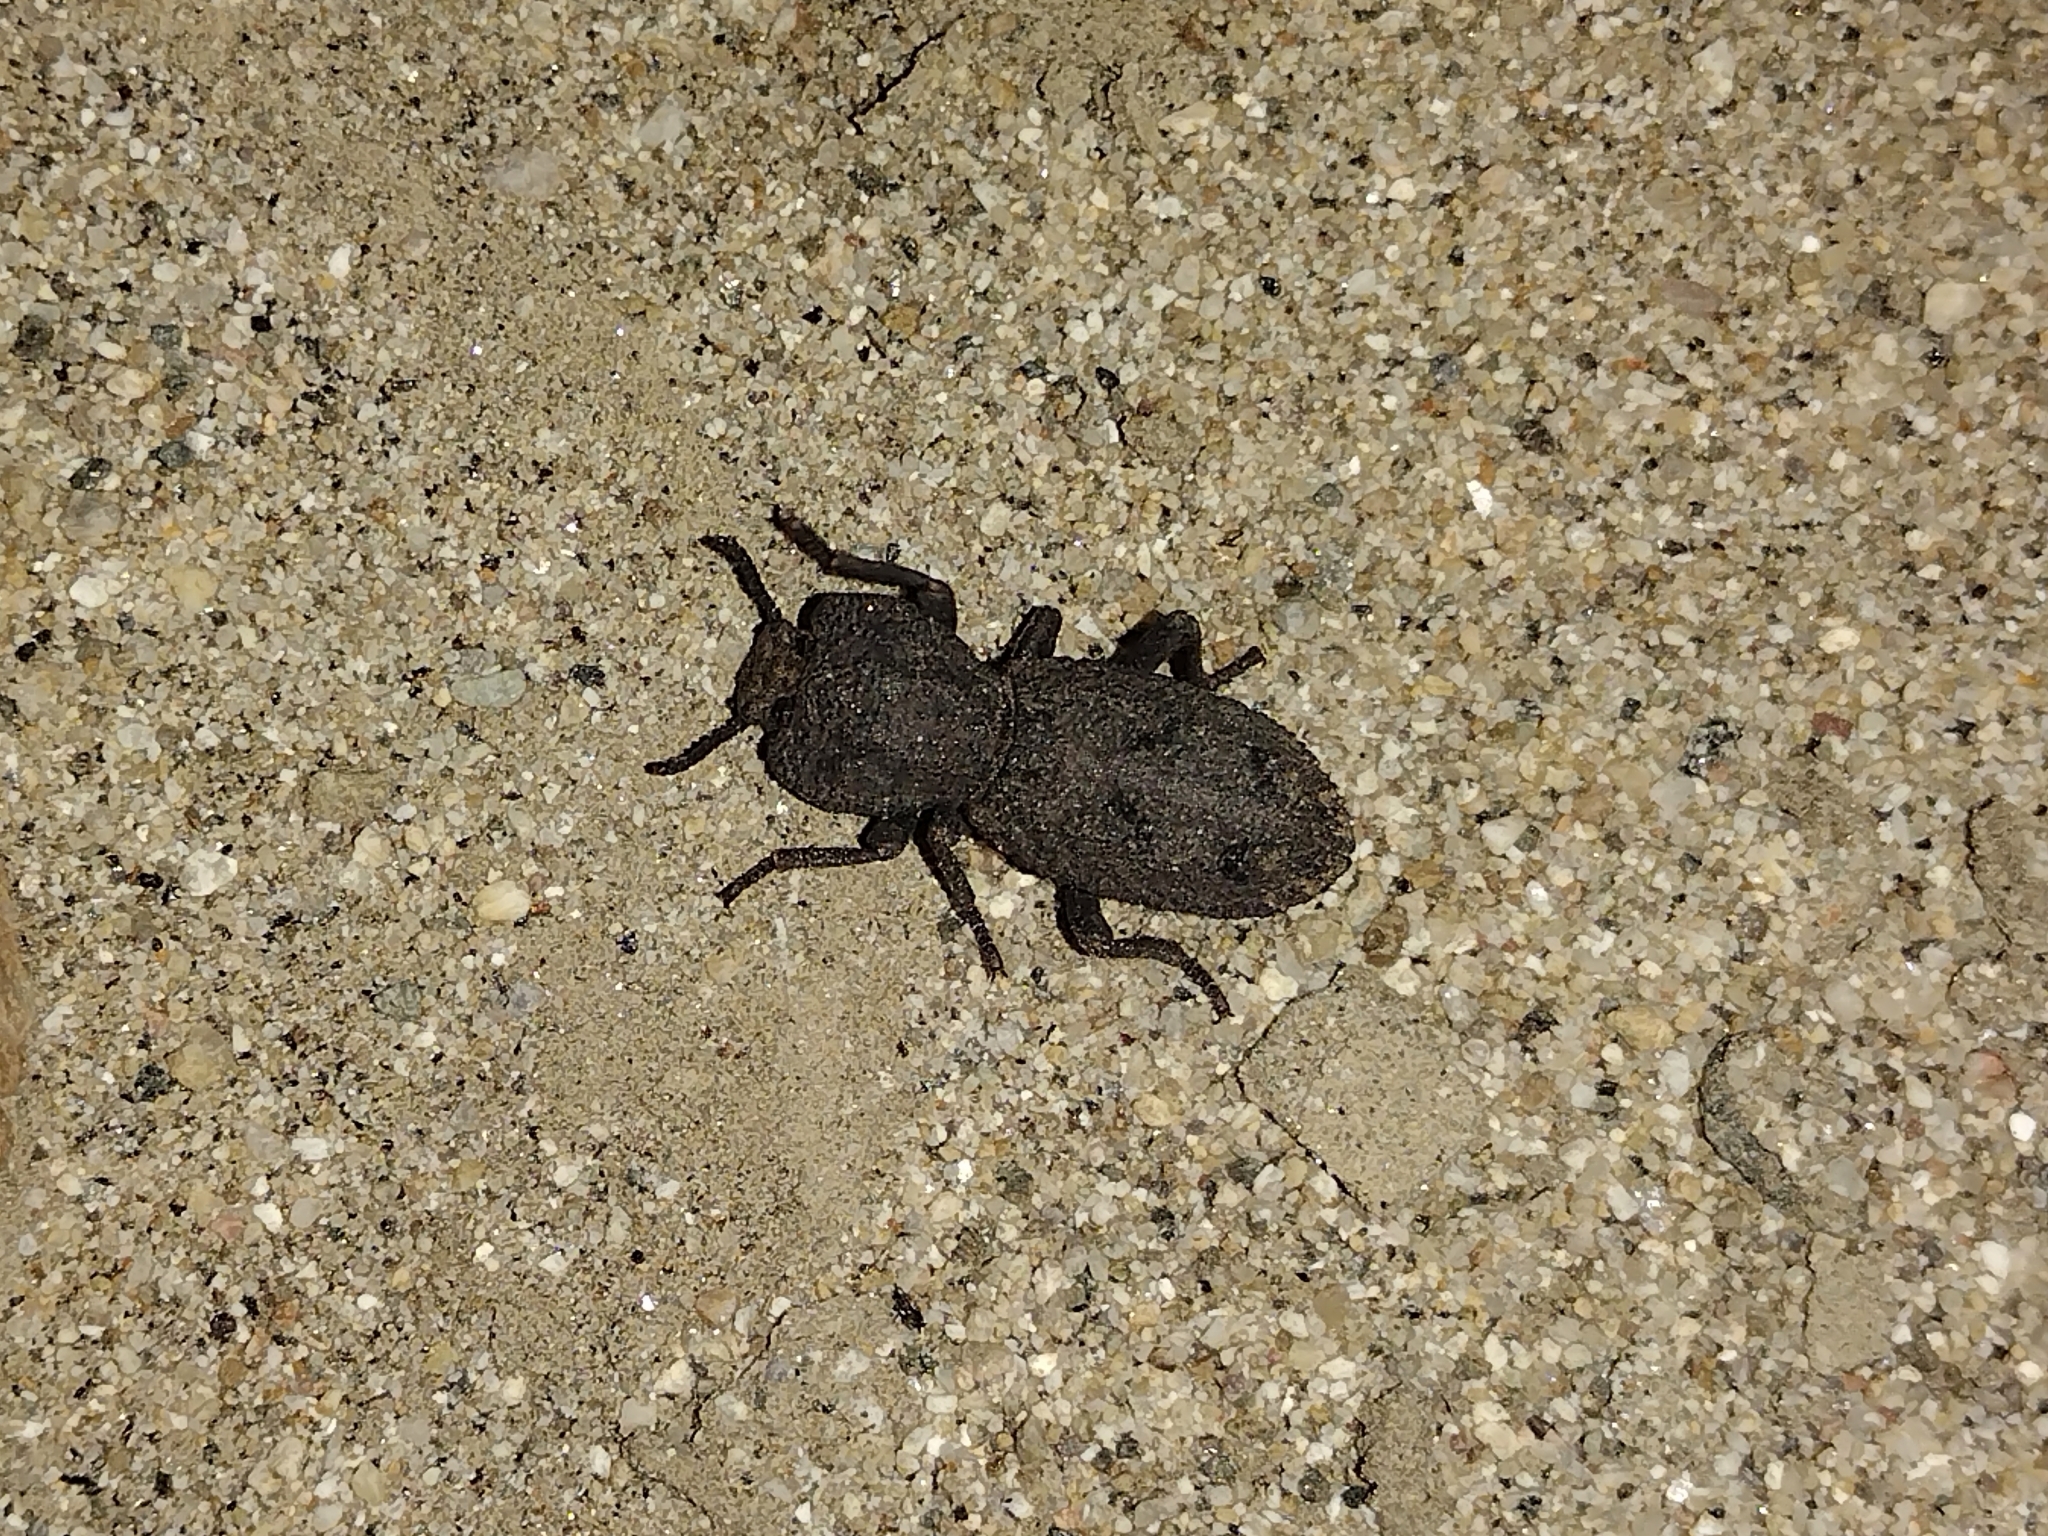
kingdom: Animalia
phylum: Arthropoda
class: Insecta
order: Coleoptera
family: Zopheridae
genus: Phloeodes
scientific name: Phloeodes diabolicus
